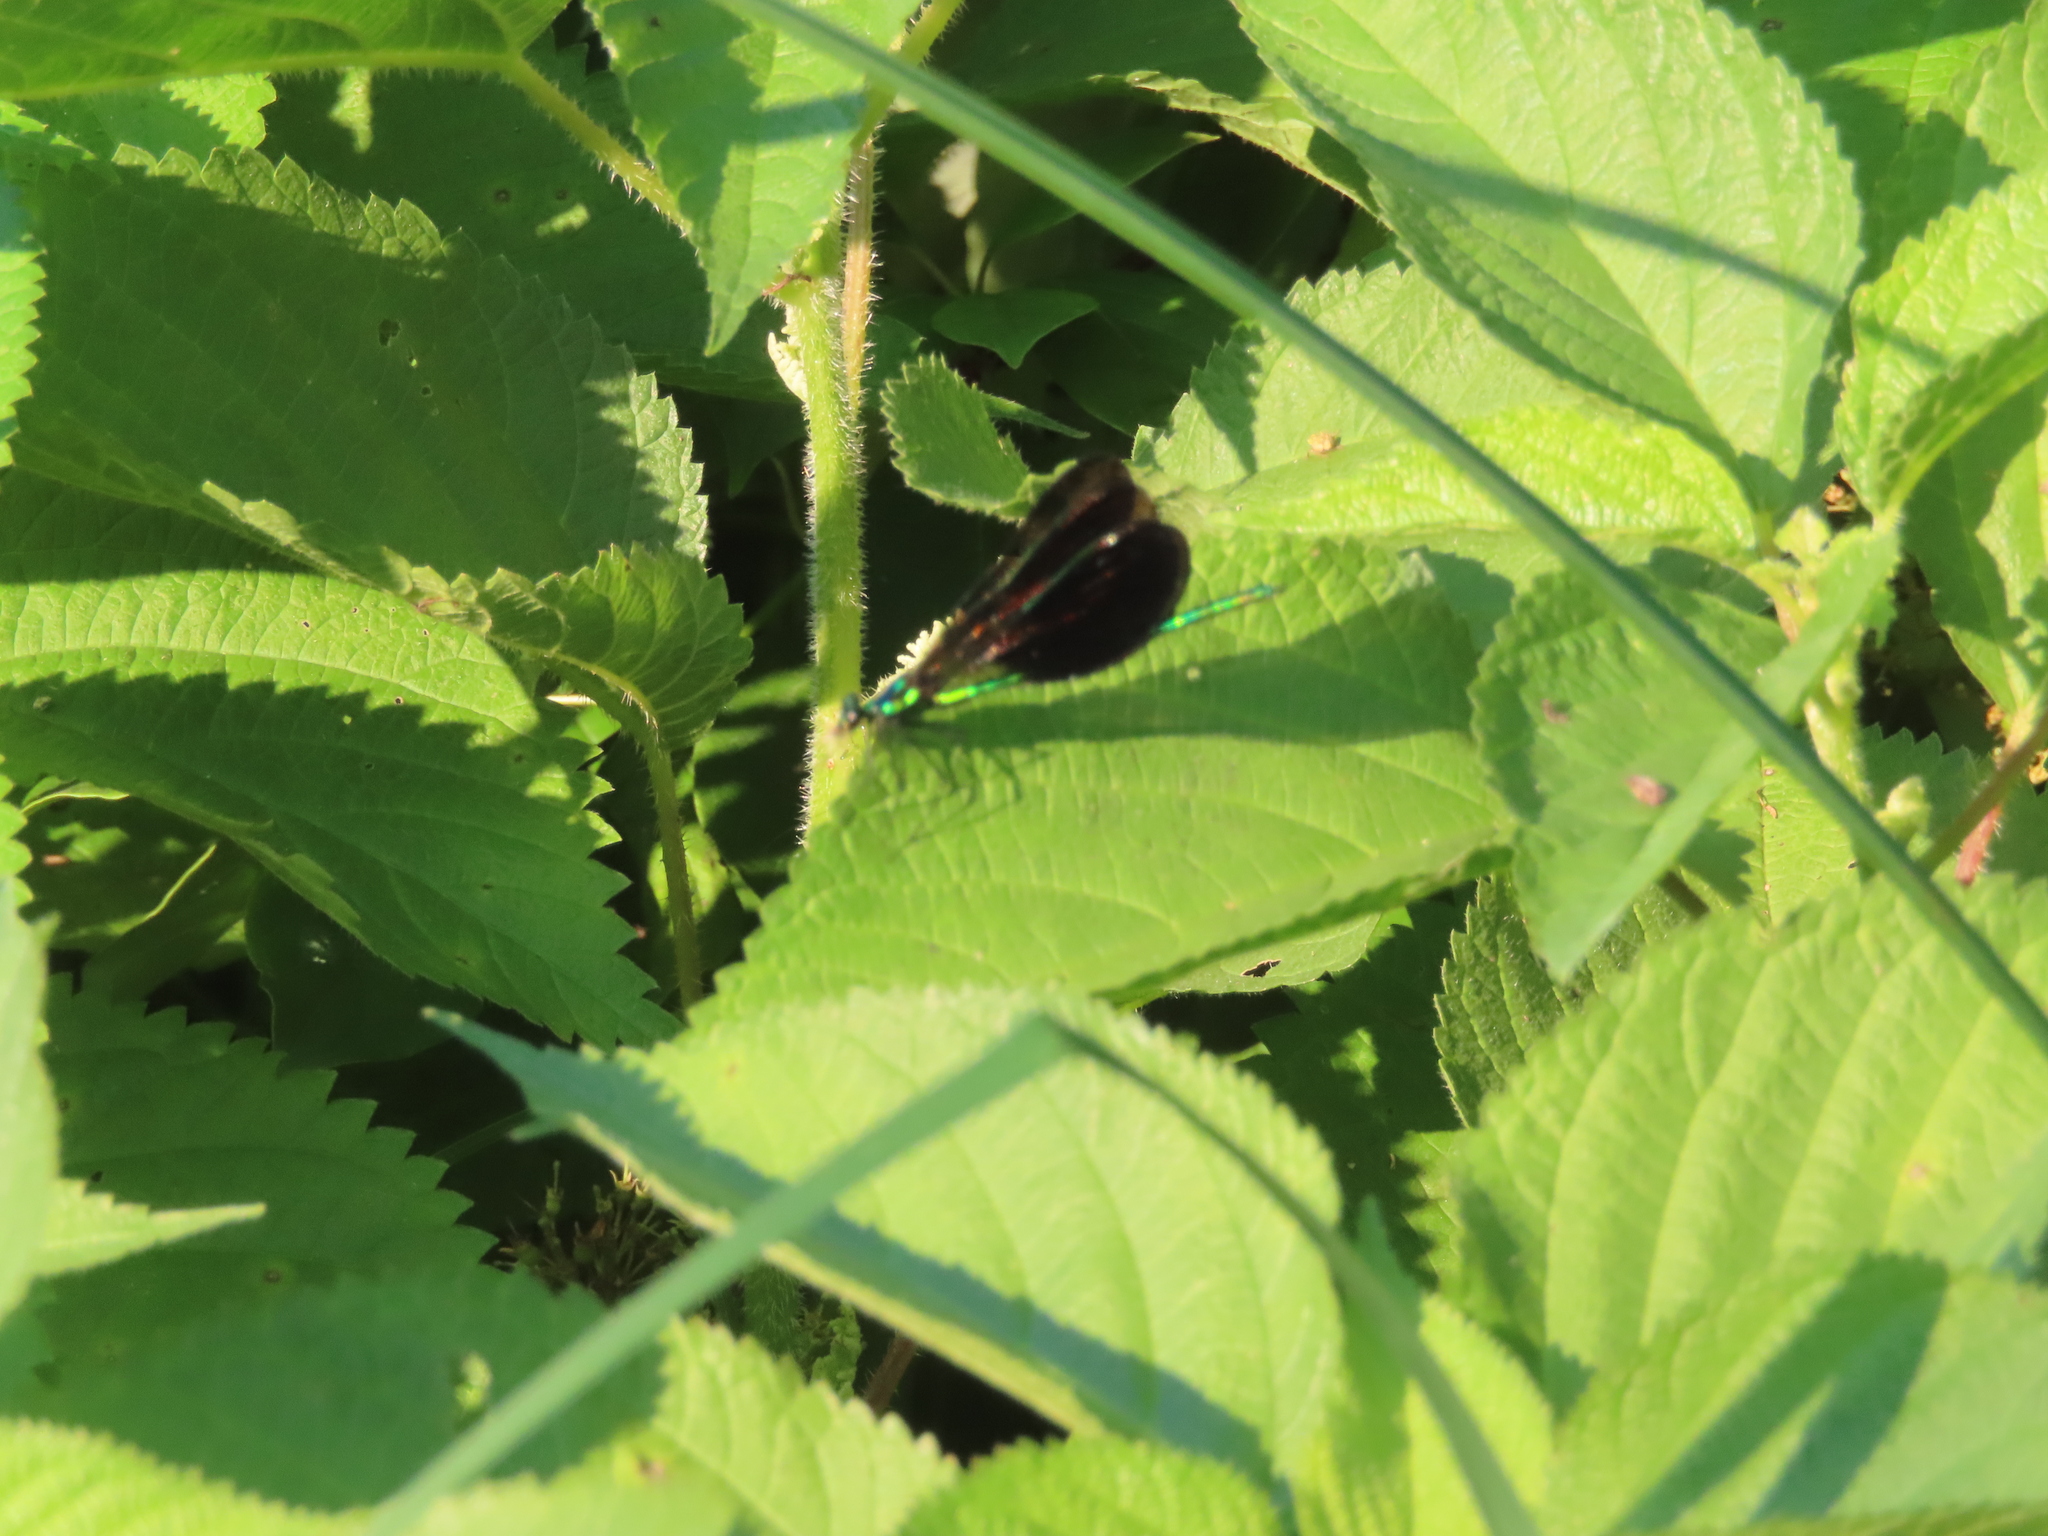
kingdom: Animalia
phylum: Arthropoda
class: Insecta
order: Odonata
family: Calopterygidae
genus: Calopteryx
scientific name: Calopteryx maculata
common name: Ebony jewelwing
